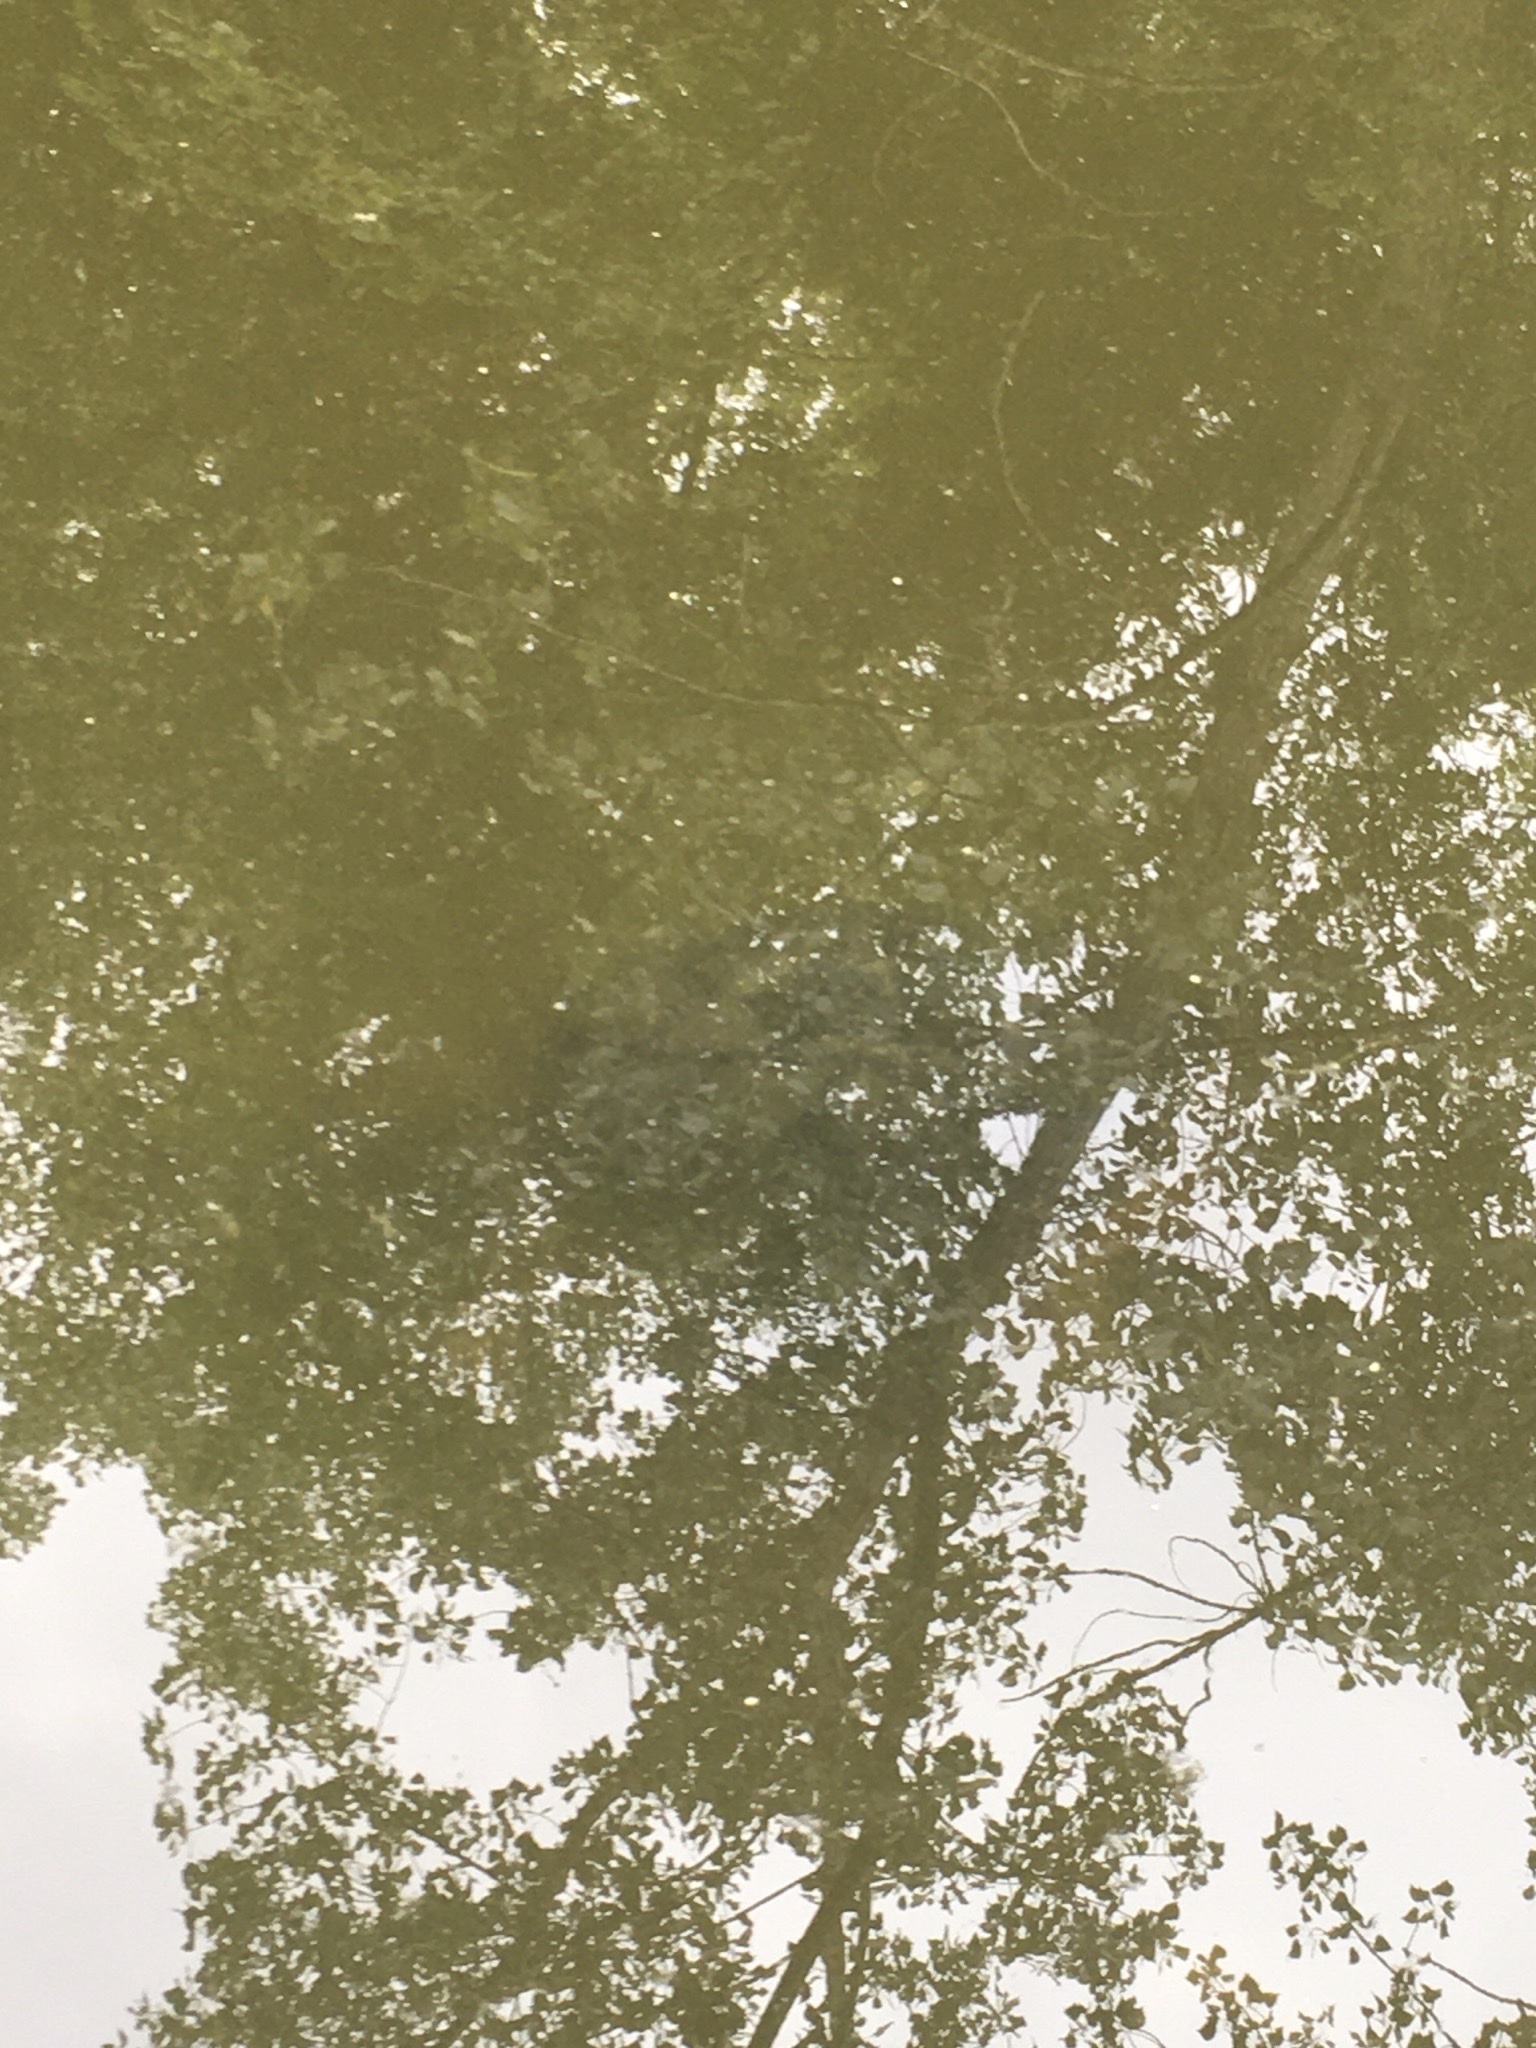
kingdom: Animalia
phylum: Chordata
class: Testudines
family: Chelydridae
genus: Chelydra
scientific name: Chelydra serpentina
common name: Common snapping turtle
